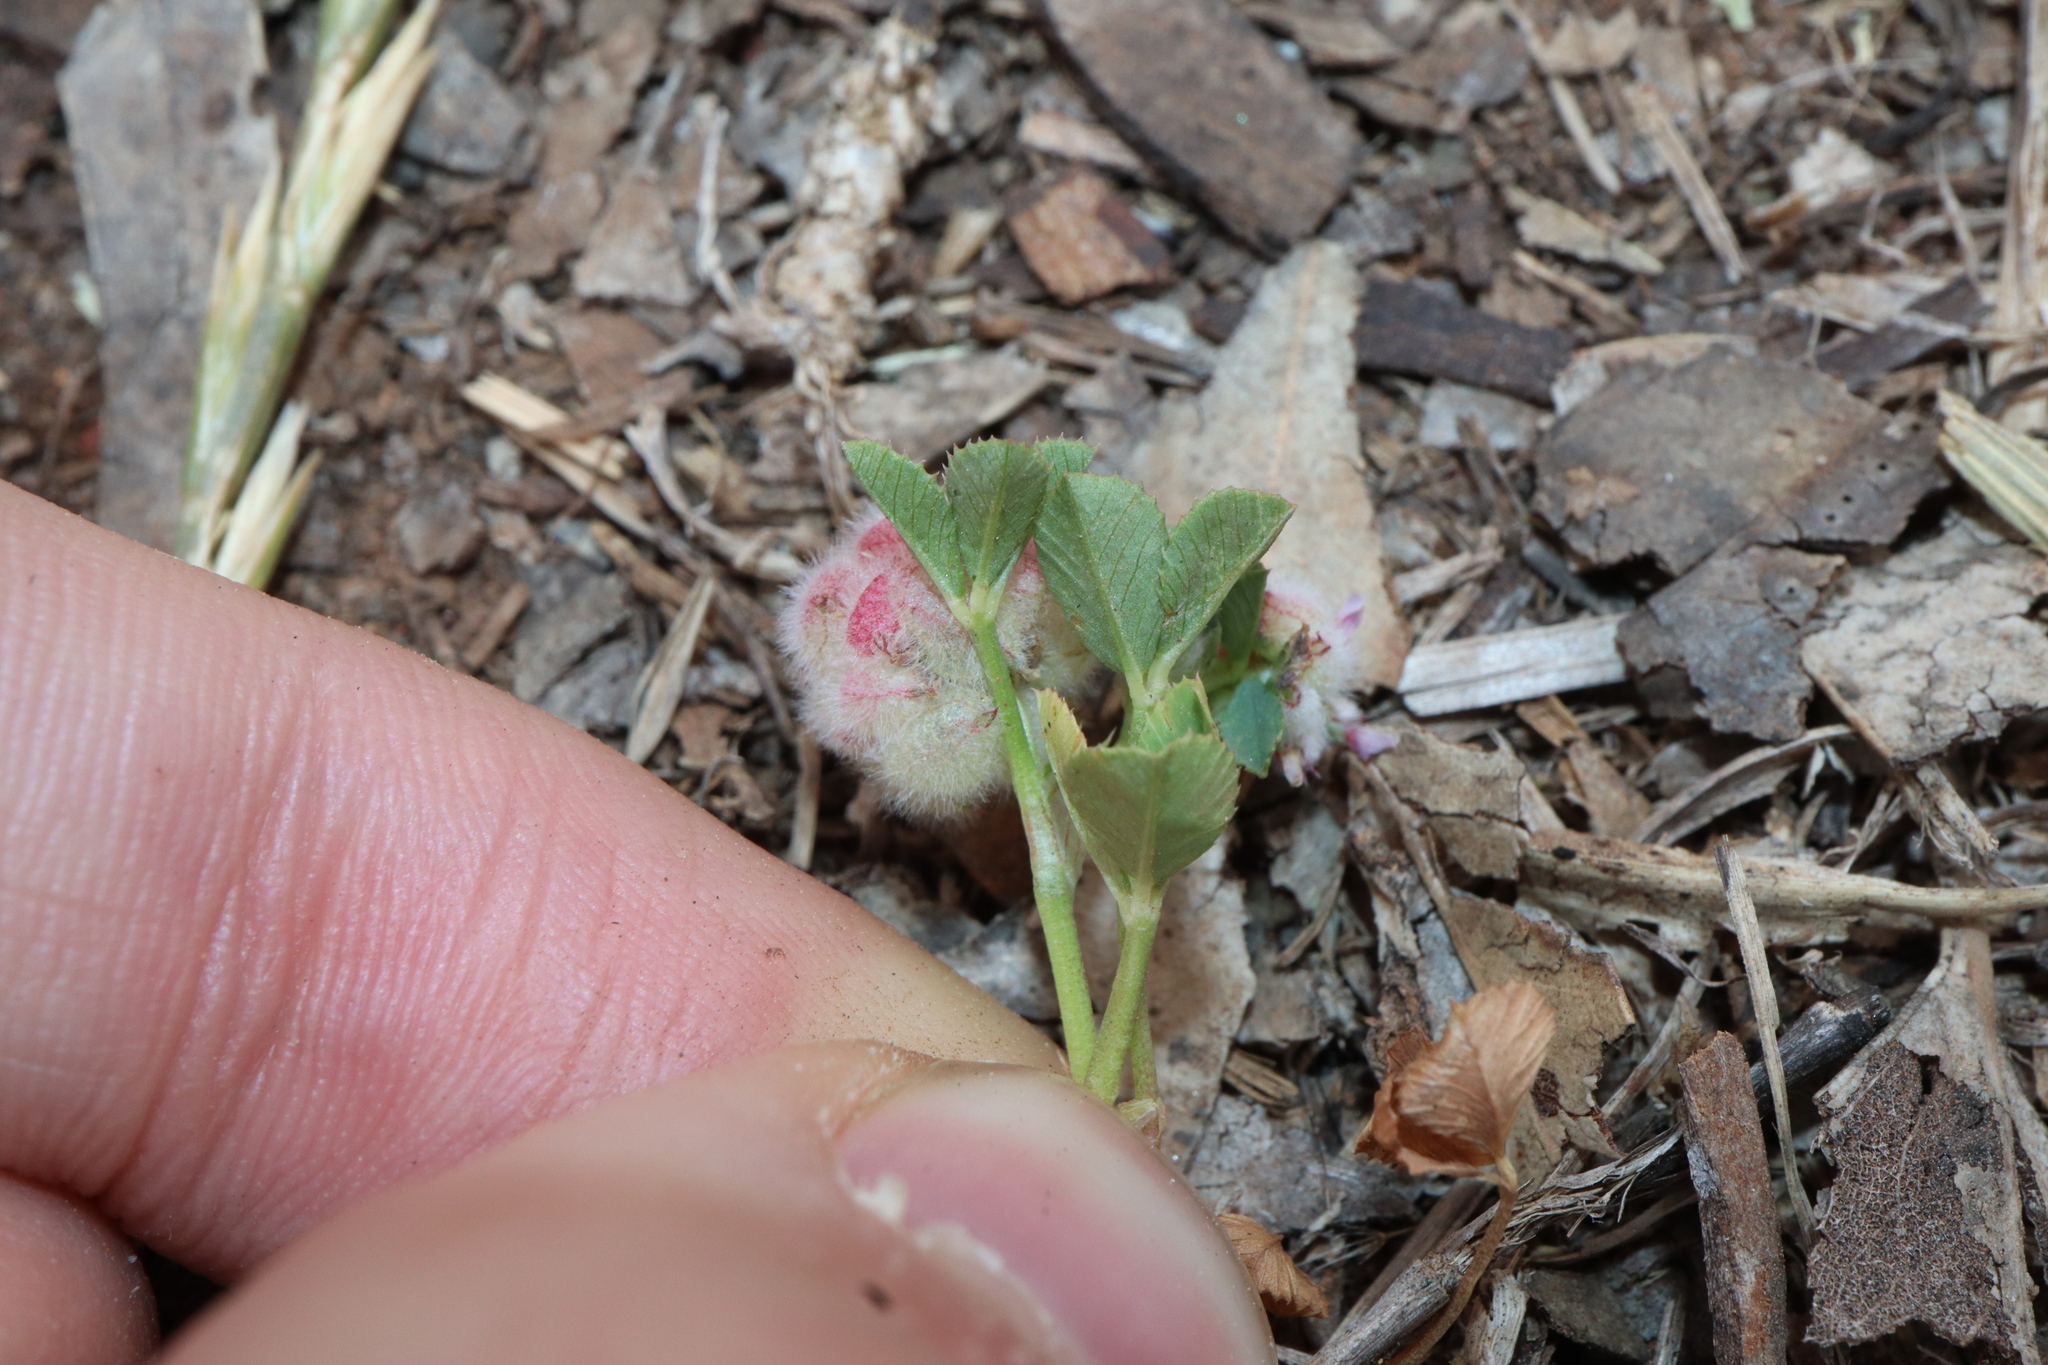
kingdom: Plantae
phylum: Tracheophyta
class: Magnoliopsida
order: Fabales
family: Fabaceae
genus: Trifolium
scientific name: Trifolium tomentosum
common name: Woolly clover
